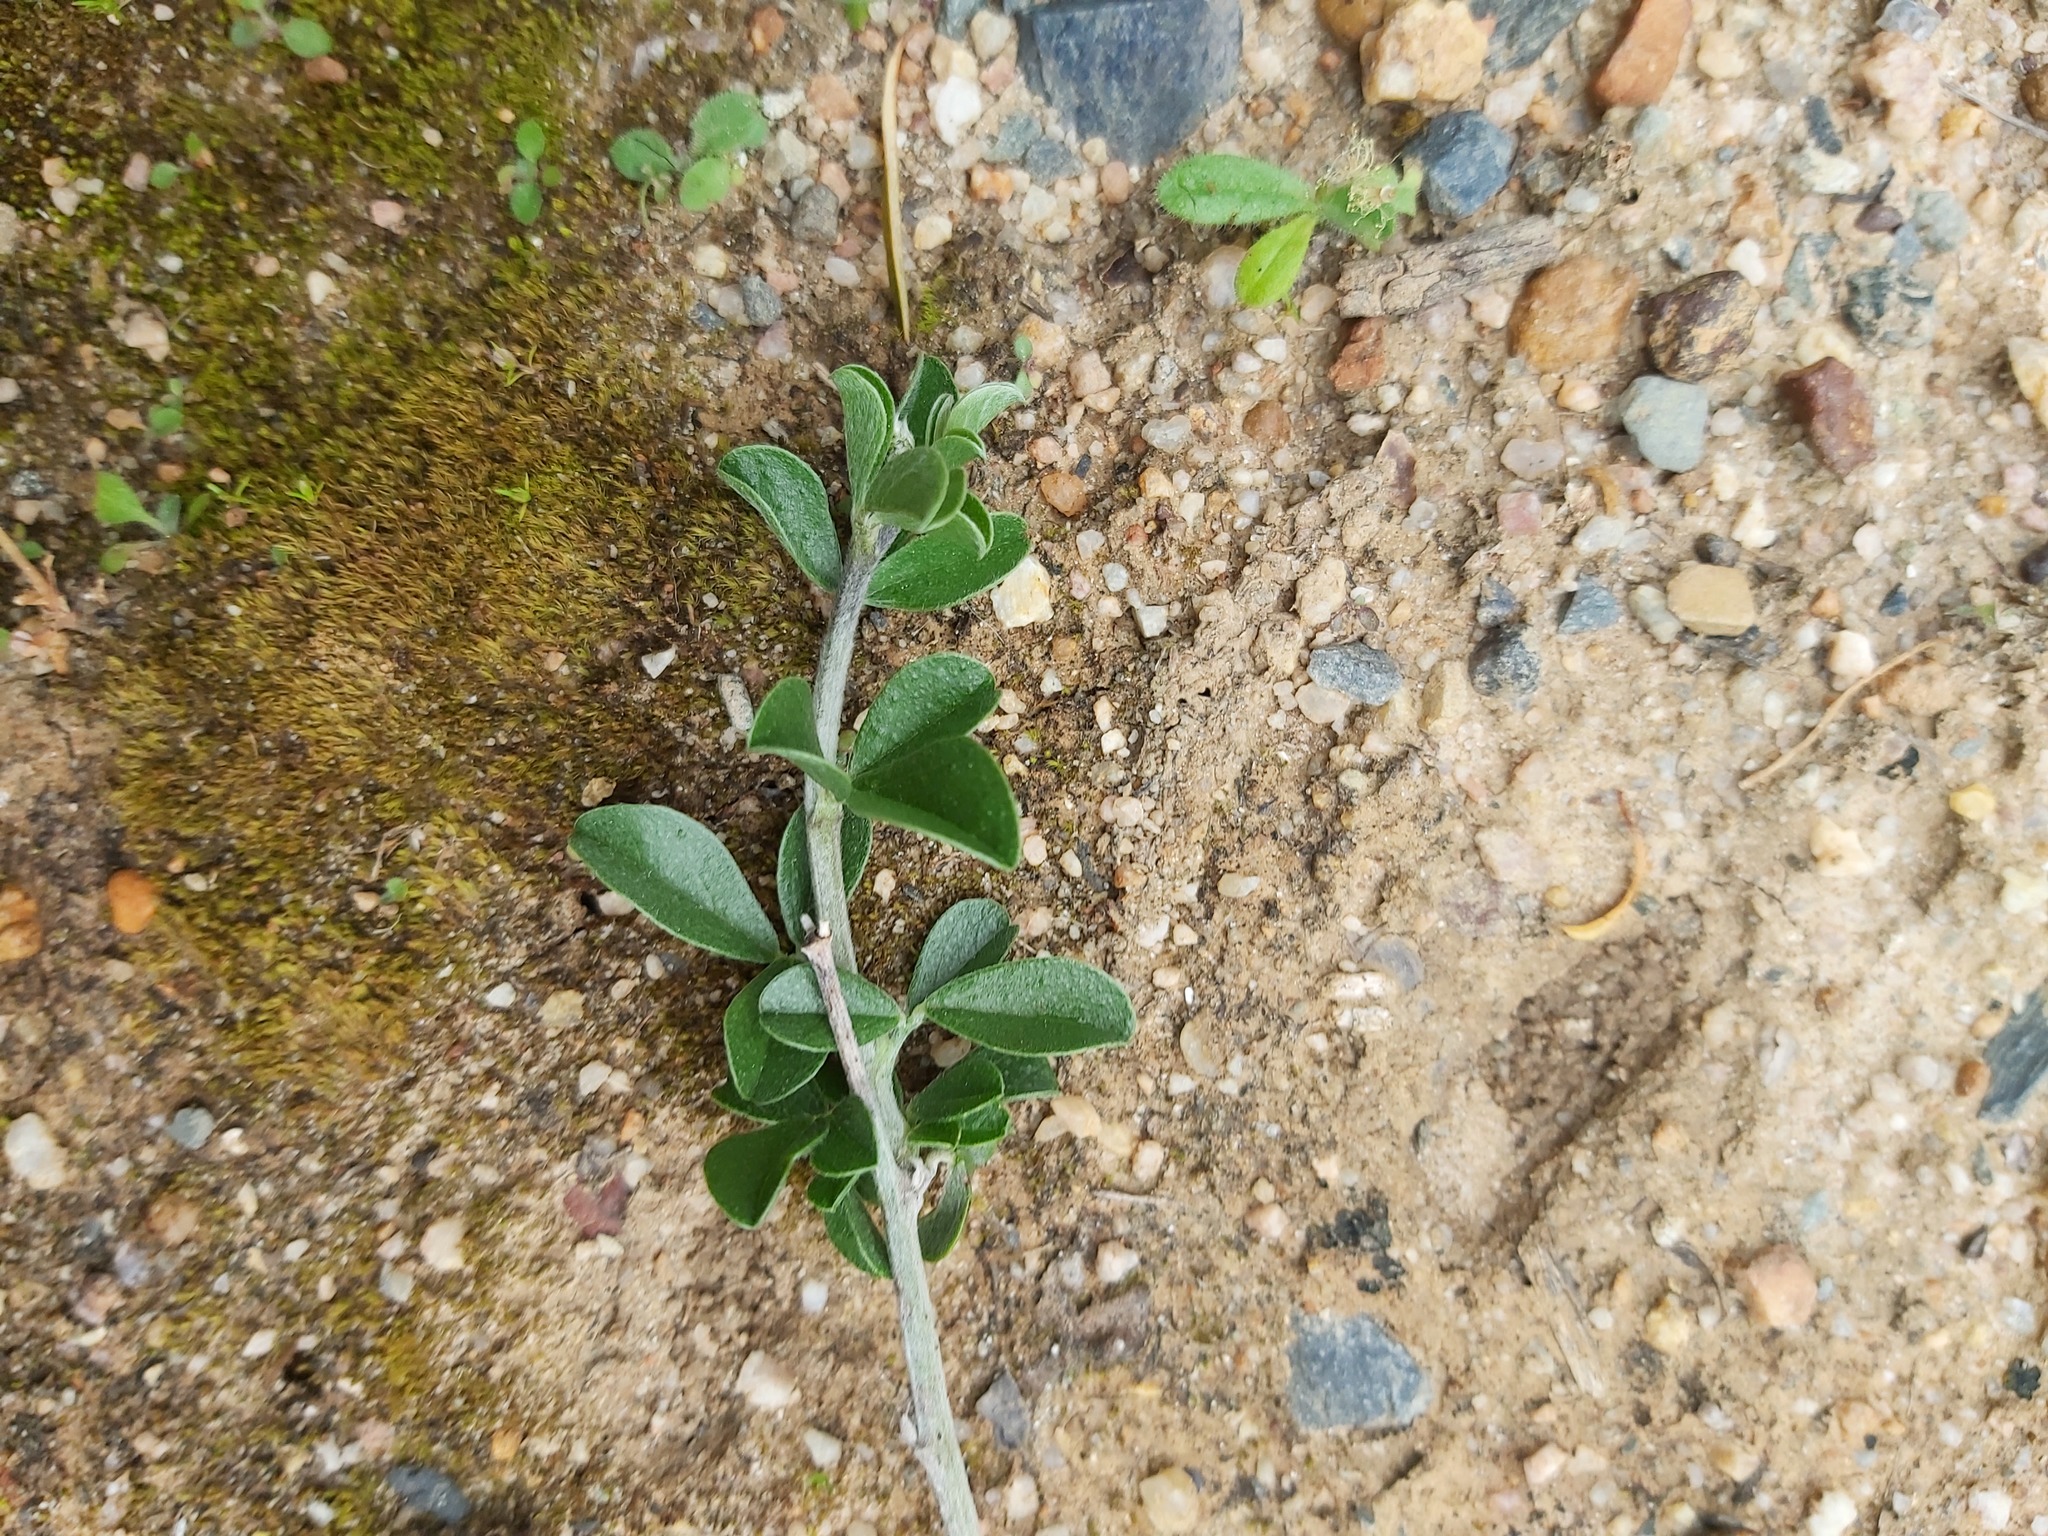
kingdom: Plantae
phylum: Tracheophyta
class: Magnoliopsida
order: Fabales
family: Fabaceae
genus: Psoralea
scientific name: Psoralea hirta
